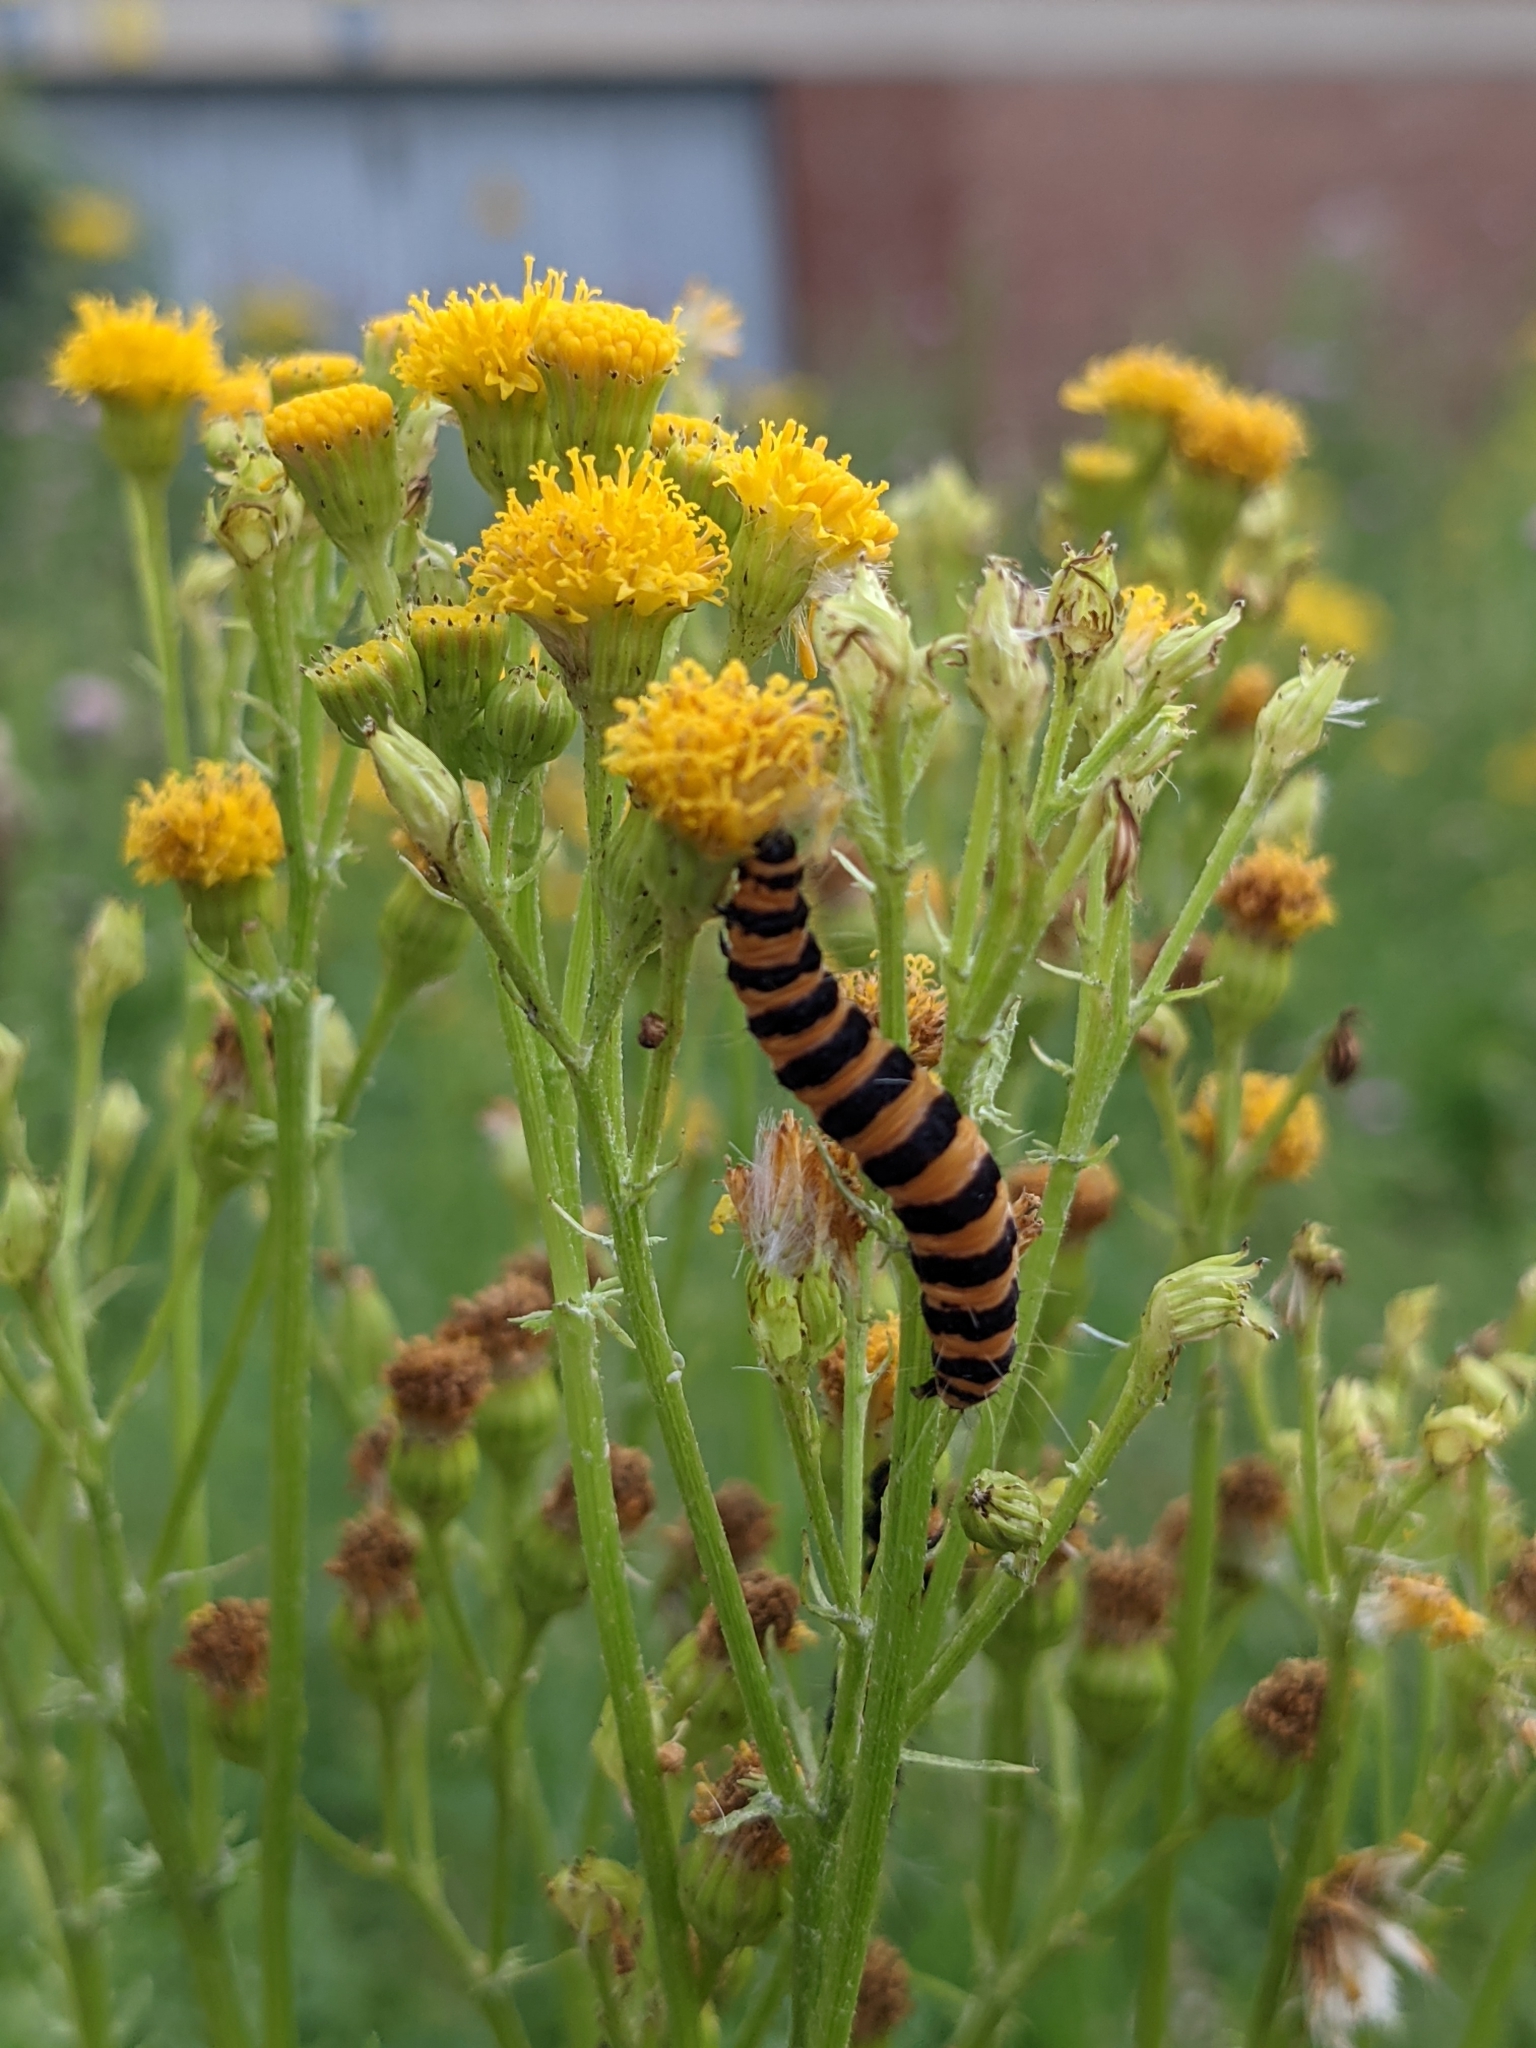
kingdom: Animalia
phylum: Arthropoda
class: Insecta
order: Lepidoptera
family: Erebidae
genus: Tyria
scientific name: Tyria jacobaeae
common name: Cinnabar
